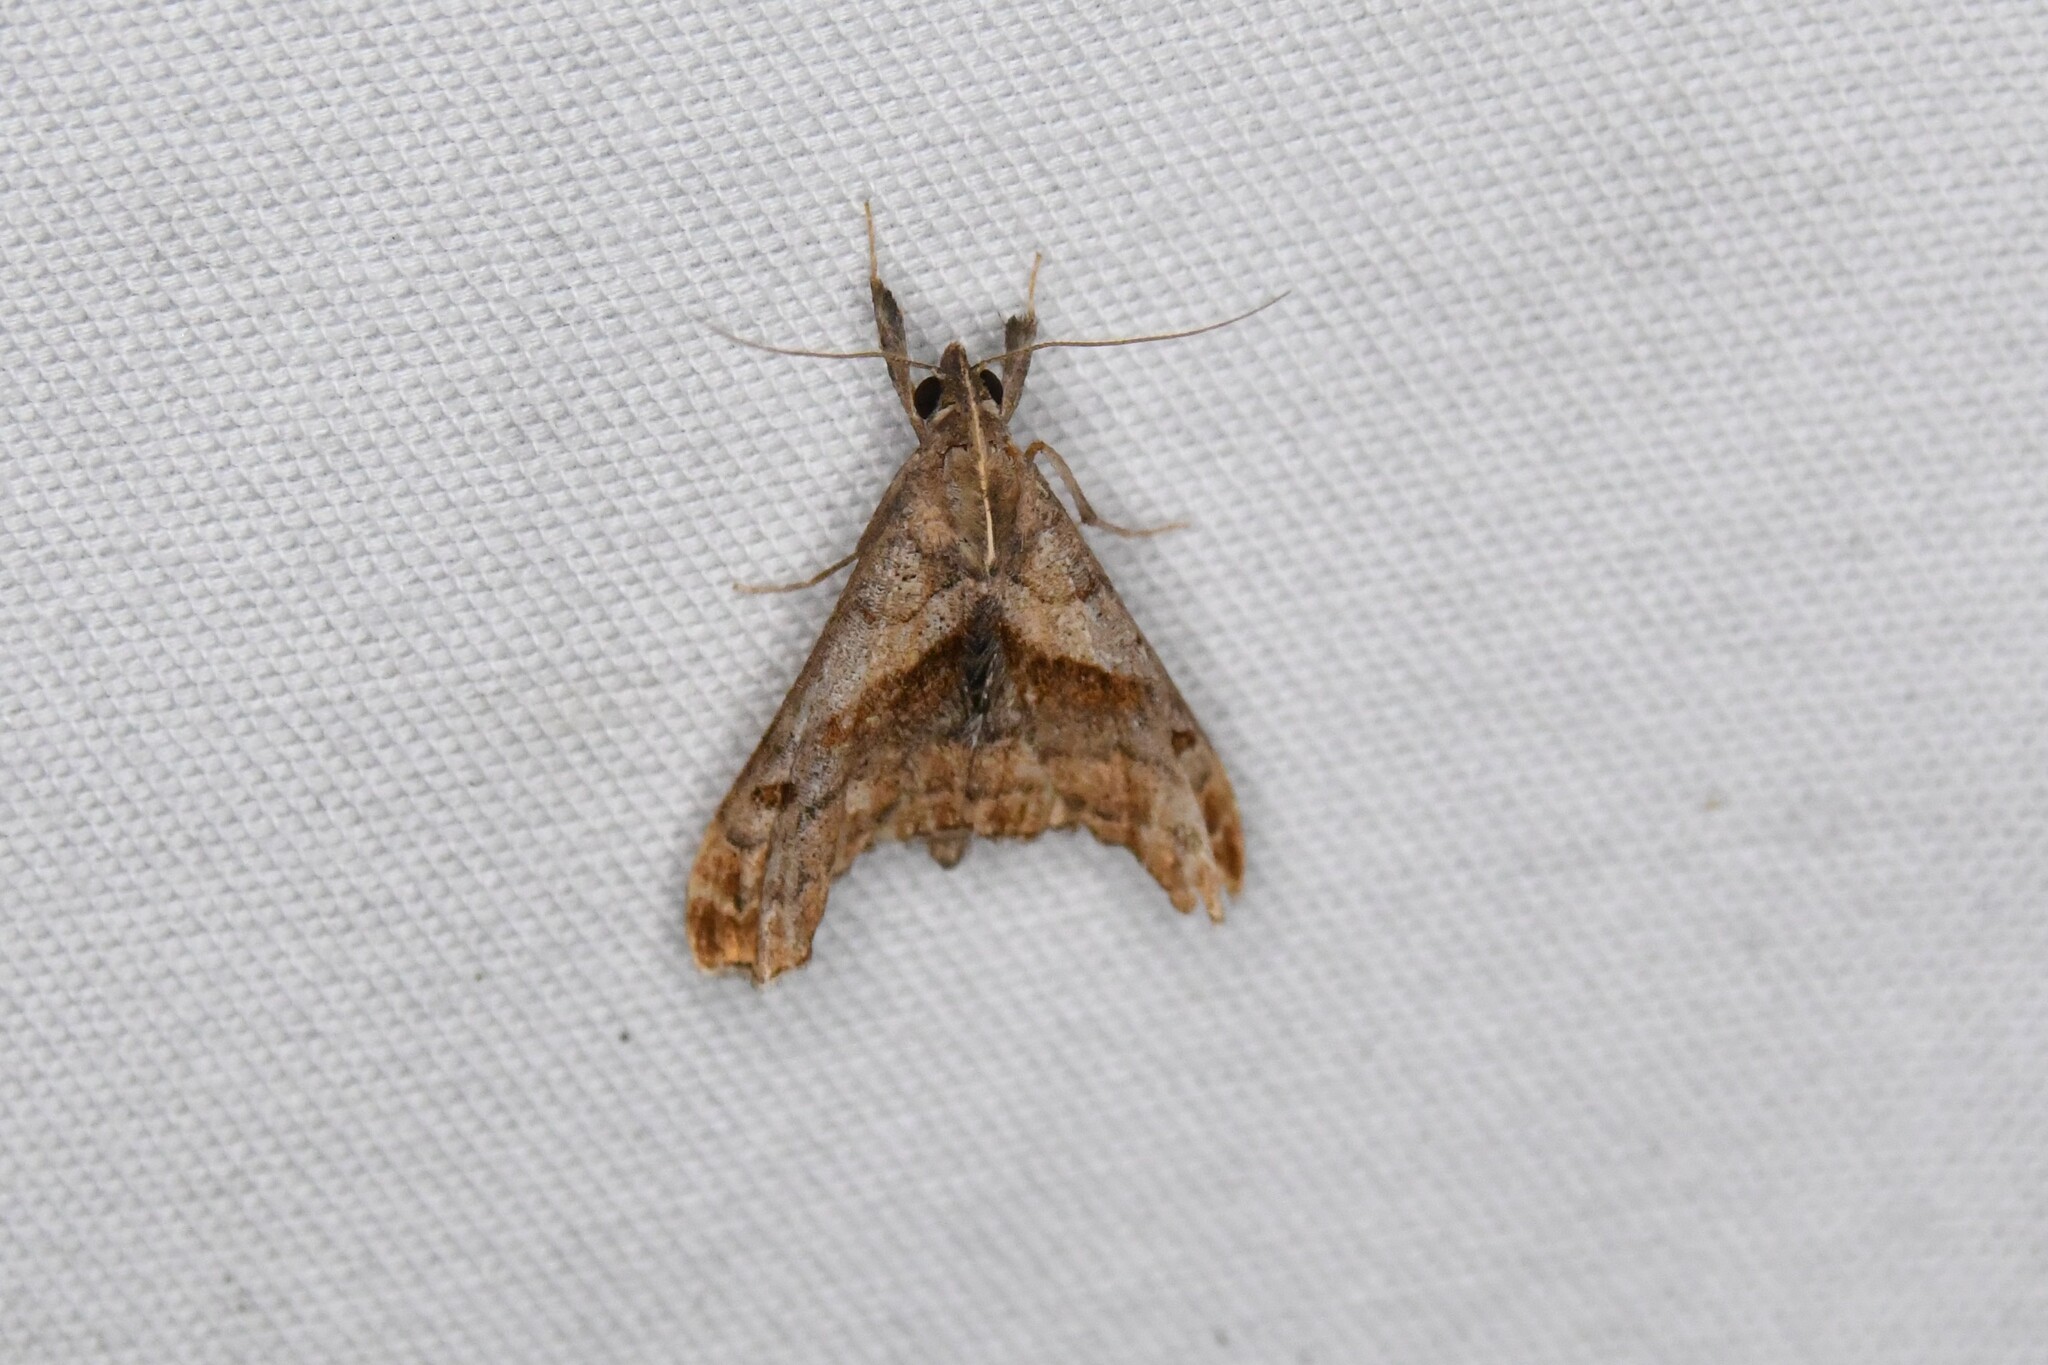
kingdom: Animalia
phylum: Arthropoda
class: Insecta
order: Lepidoptera
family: Erebidae
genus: Palthis
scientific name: Palthis angulalis
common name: Dark-spotted palthis moth
